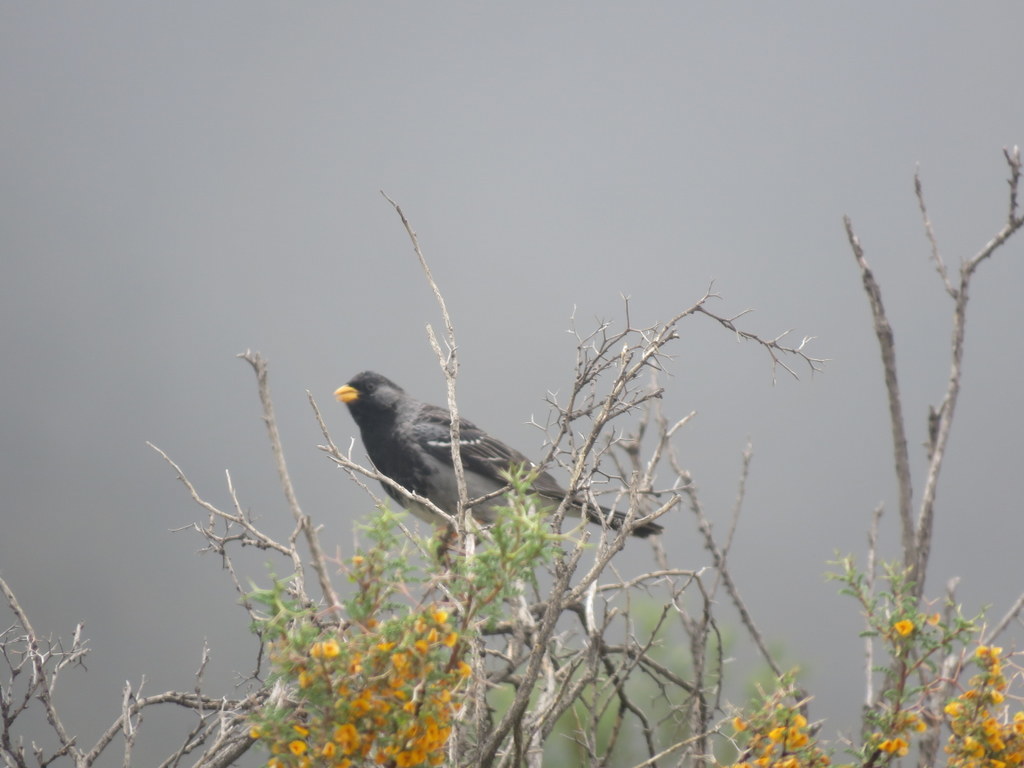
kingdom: Animalia
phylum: Chordata
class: Aves
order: Passeriformes
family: Thraupidae
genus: Rhopospina
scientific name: Rhopospina fruticeti
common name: Mourning sierra finch
